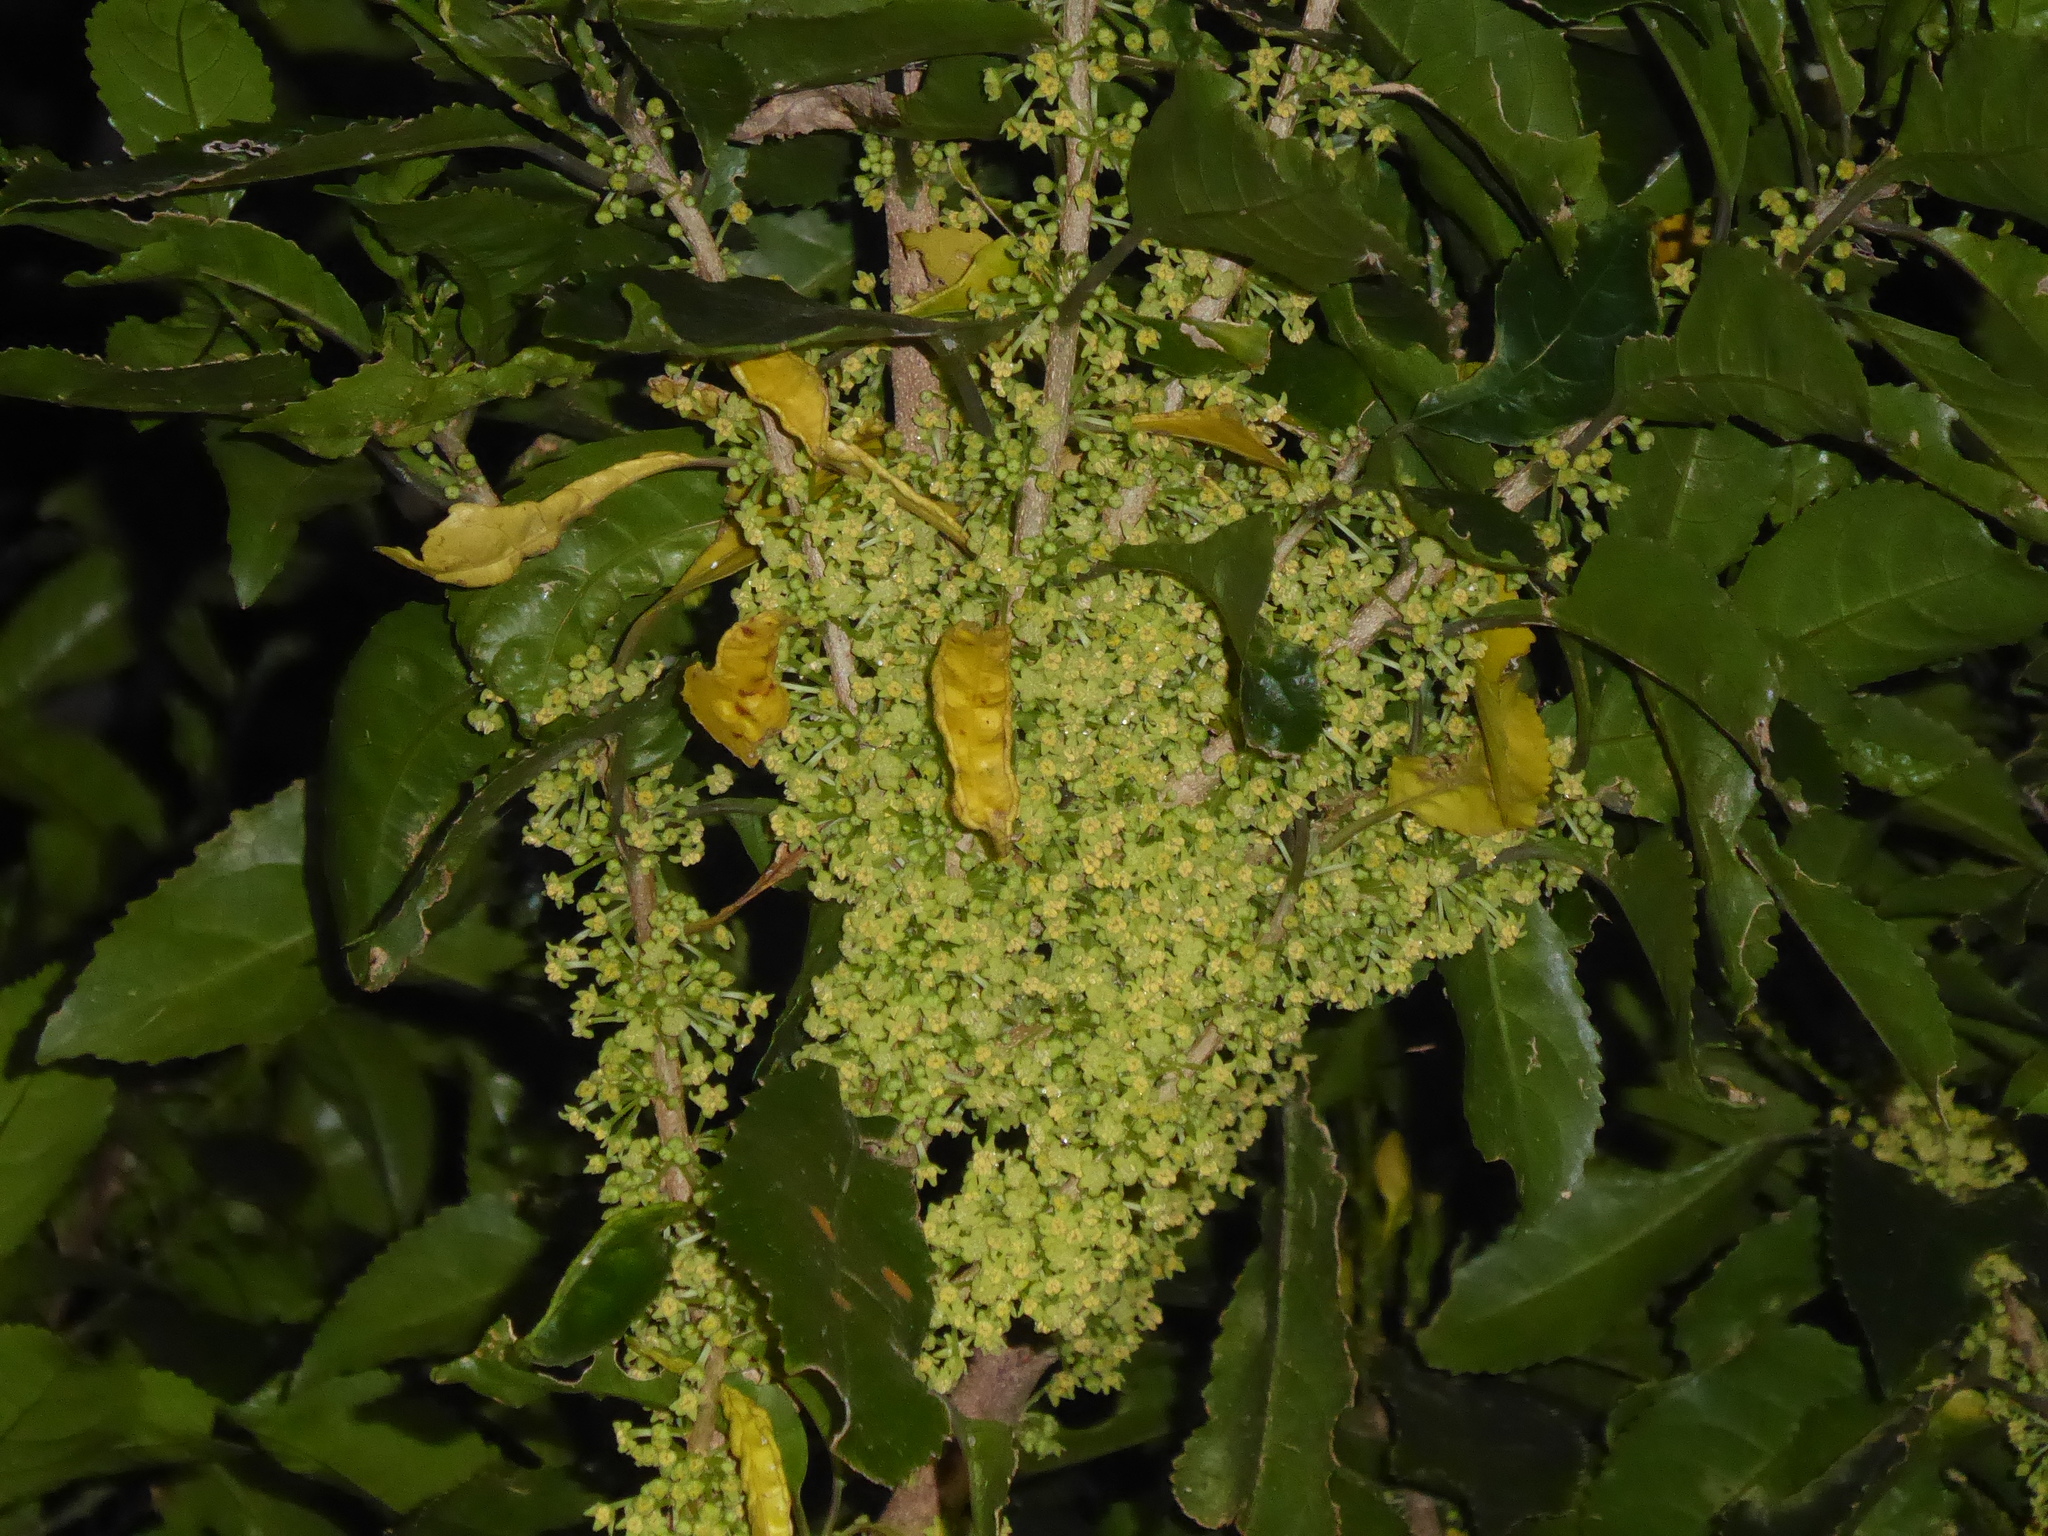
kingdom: Plantae
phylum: Tracheophyta
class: Magnoliopsida
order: Malpighiales
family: Violaceae
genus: Melicytus
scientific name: Melicytus ramiflorus
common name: Mahoe
